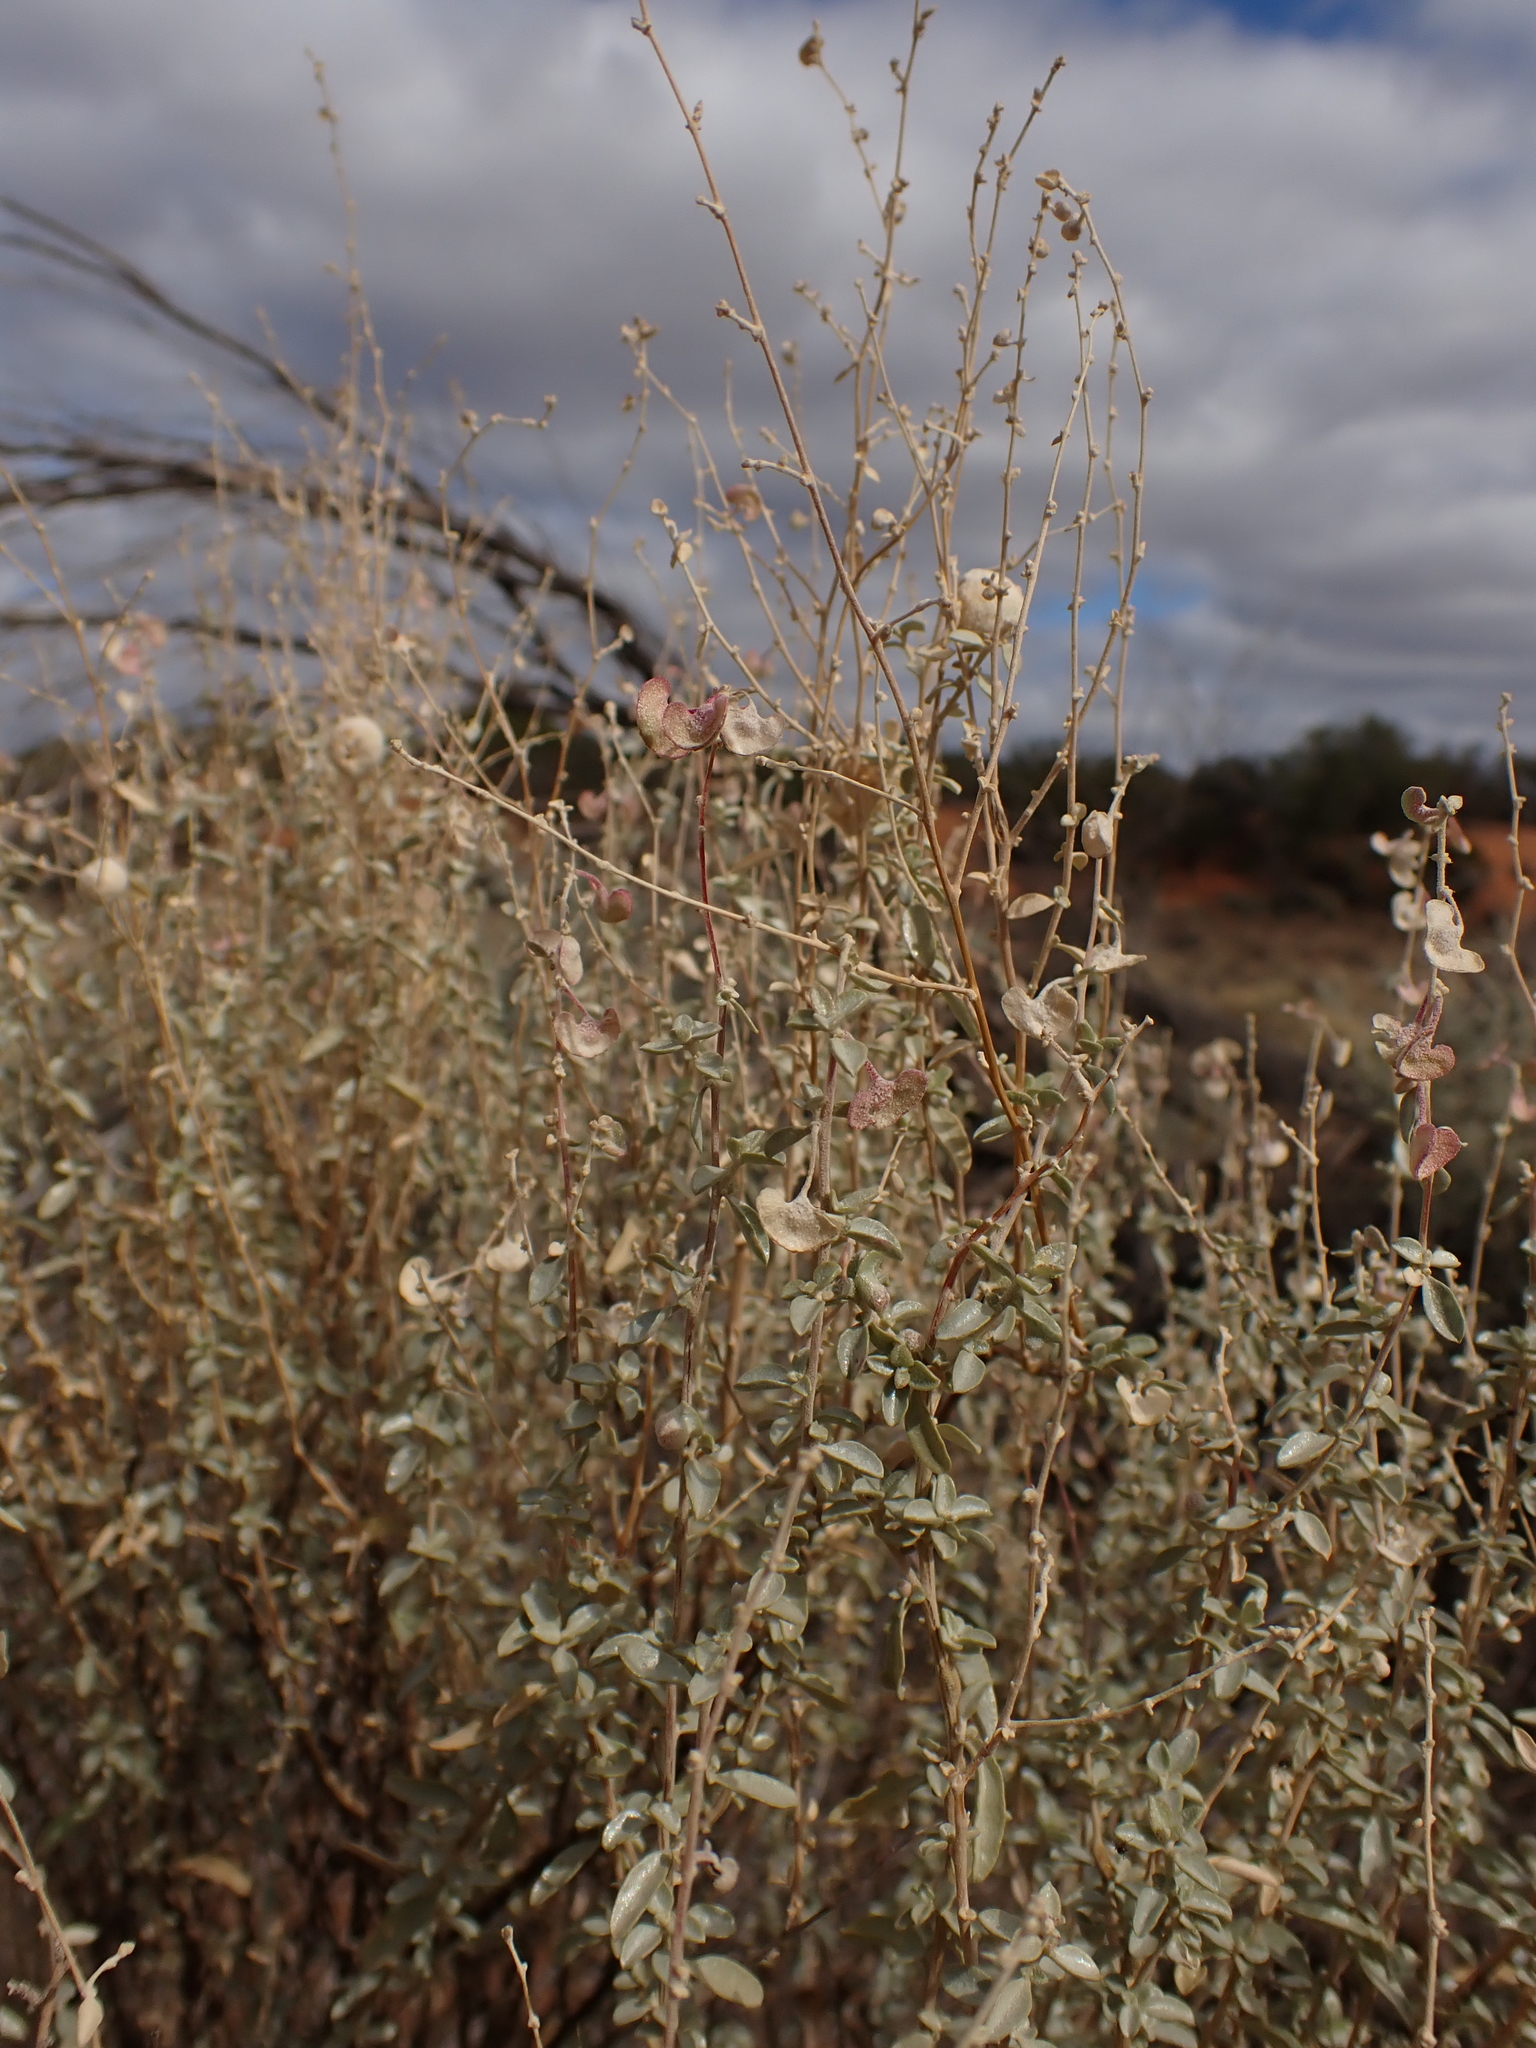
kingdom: Plantae
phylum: Tracheophyta
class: Magnoliopsida
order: Caryophyllales
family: Amaranthaceae
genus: Atriplex
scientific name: Atriplex stipitata
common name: Mallee saltbush
